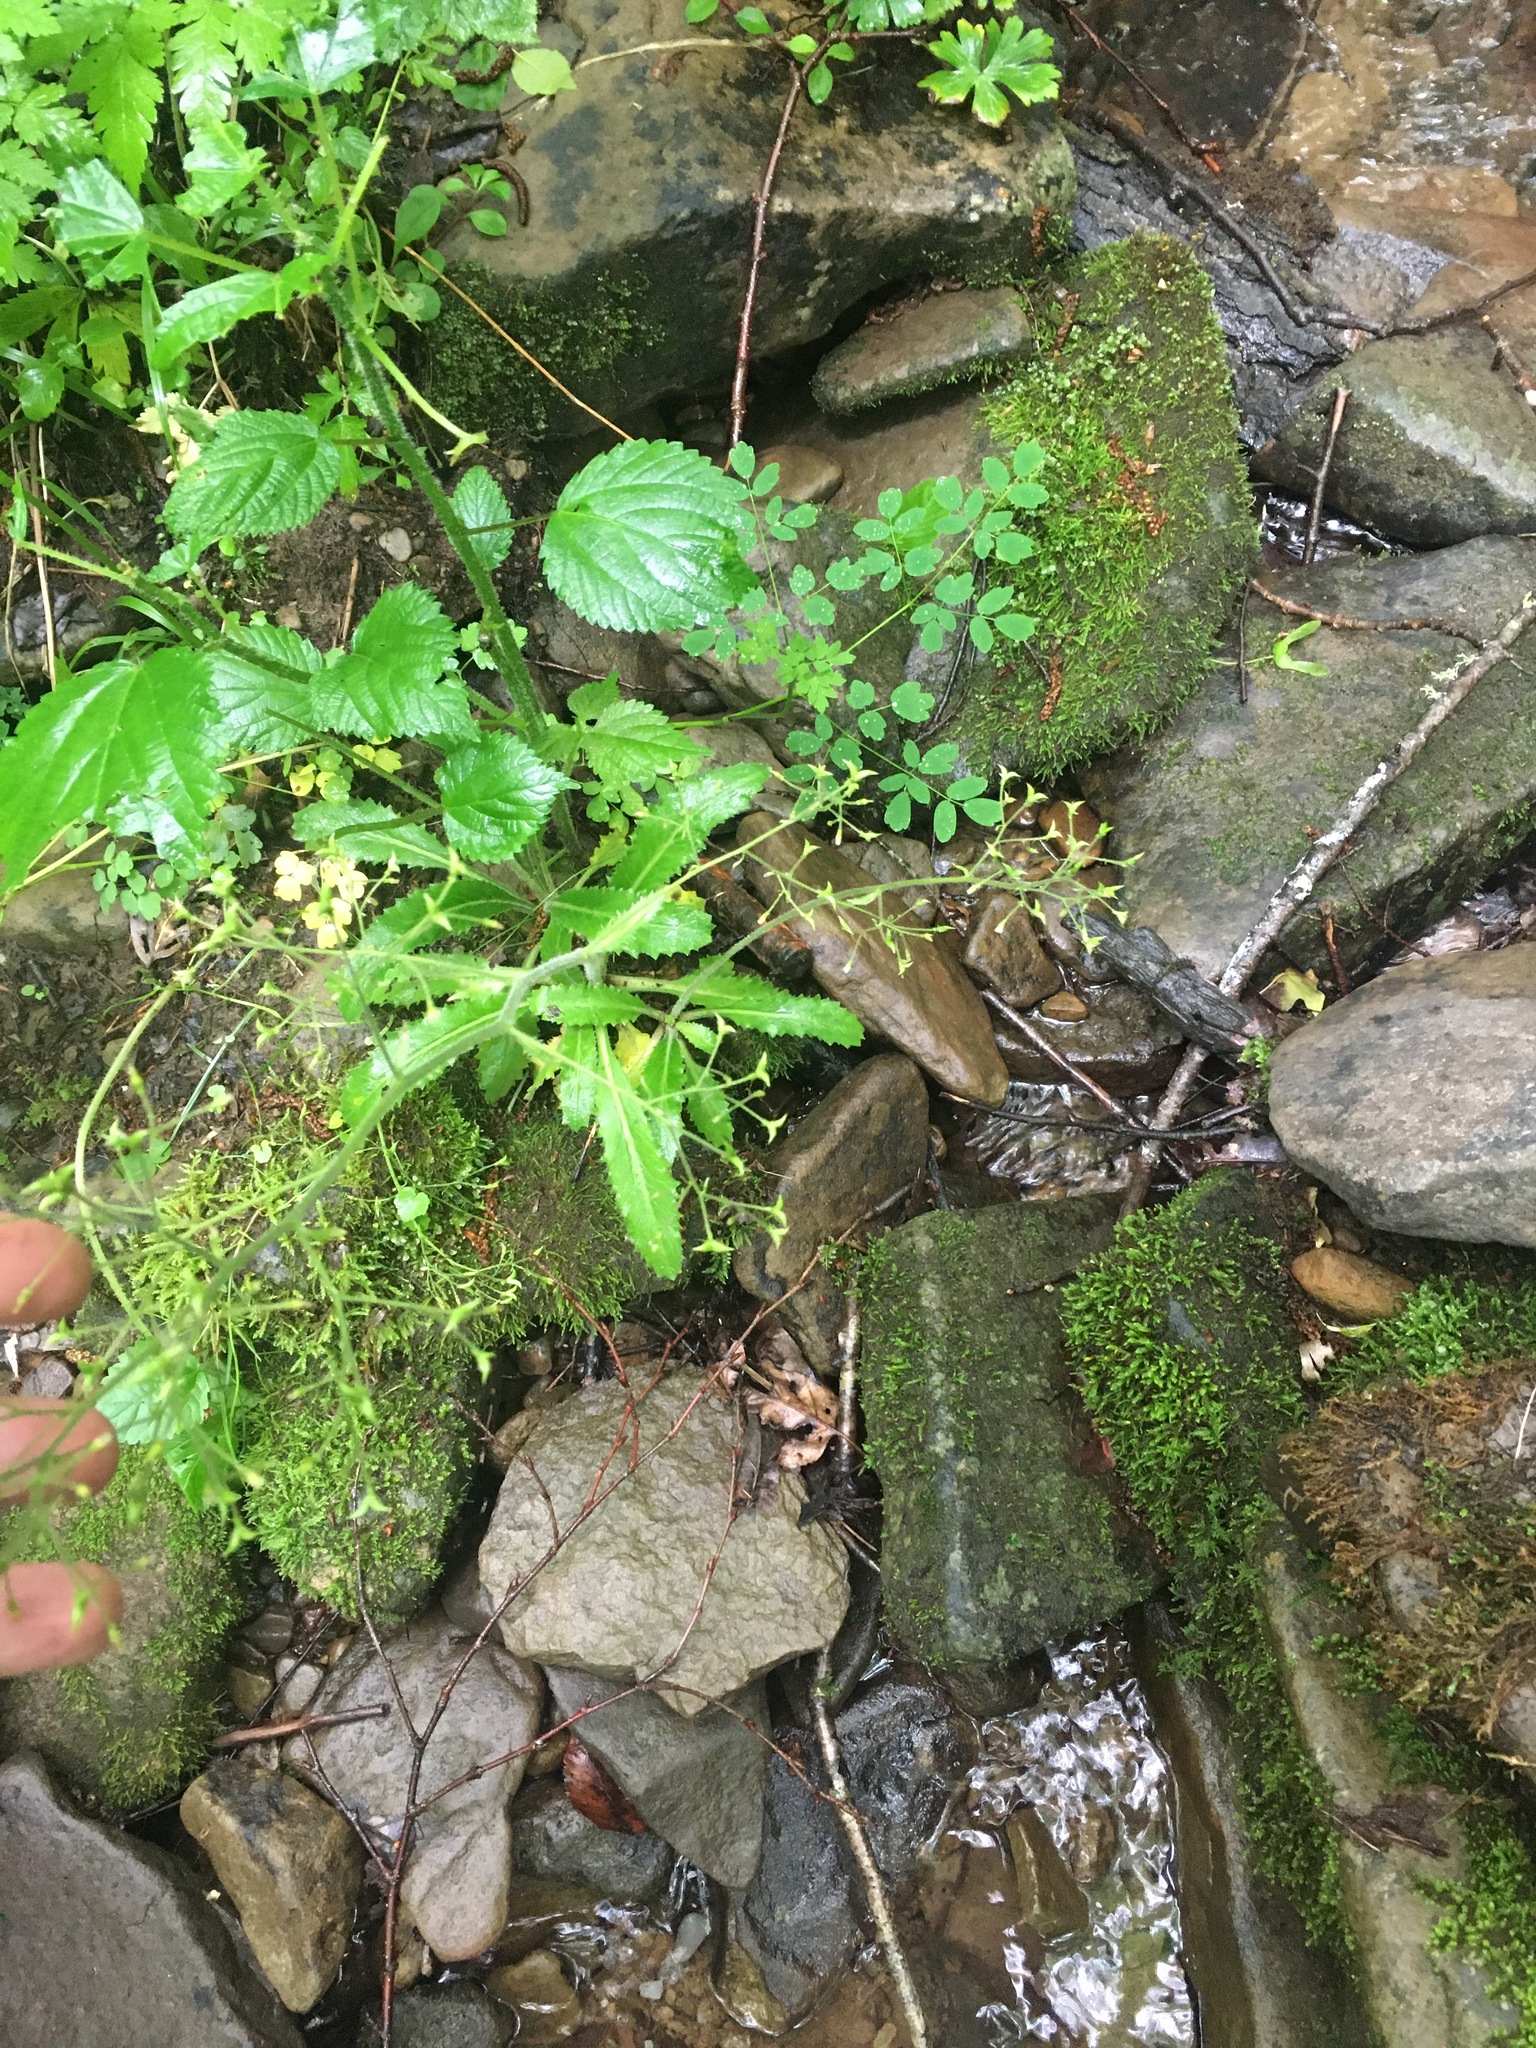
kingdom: Plantae
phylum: Tracheophyta
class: Magnoliopsida
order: Saxifragales
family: Saxifragaceae
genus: Micranthes
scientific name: Micranthes micranthidifolia
